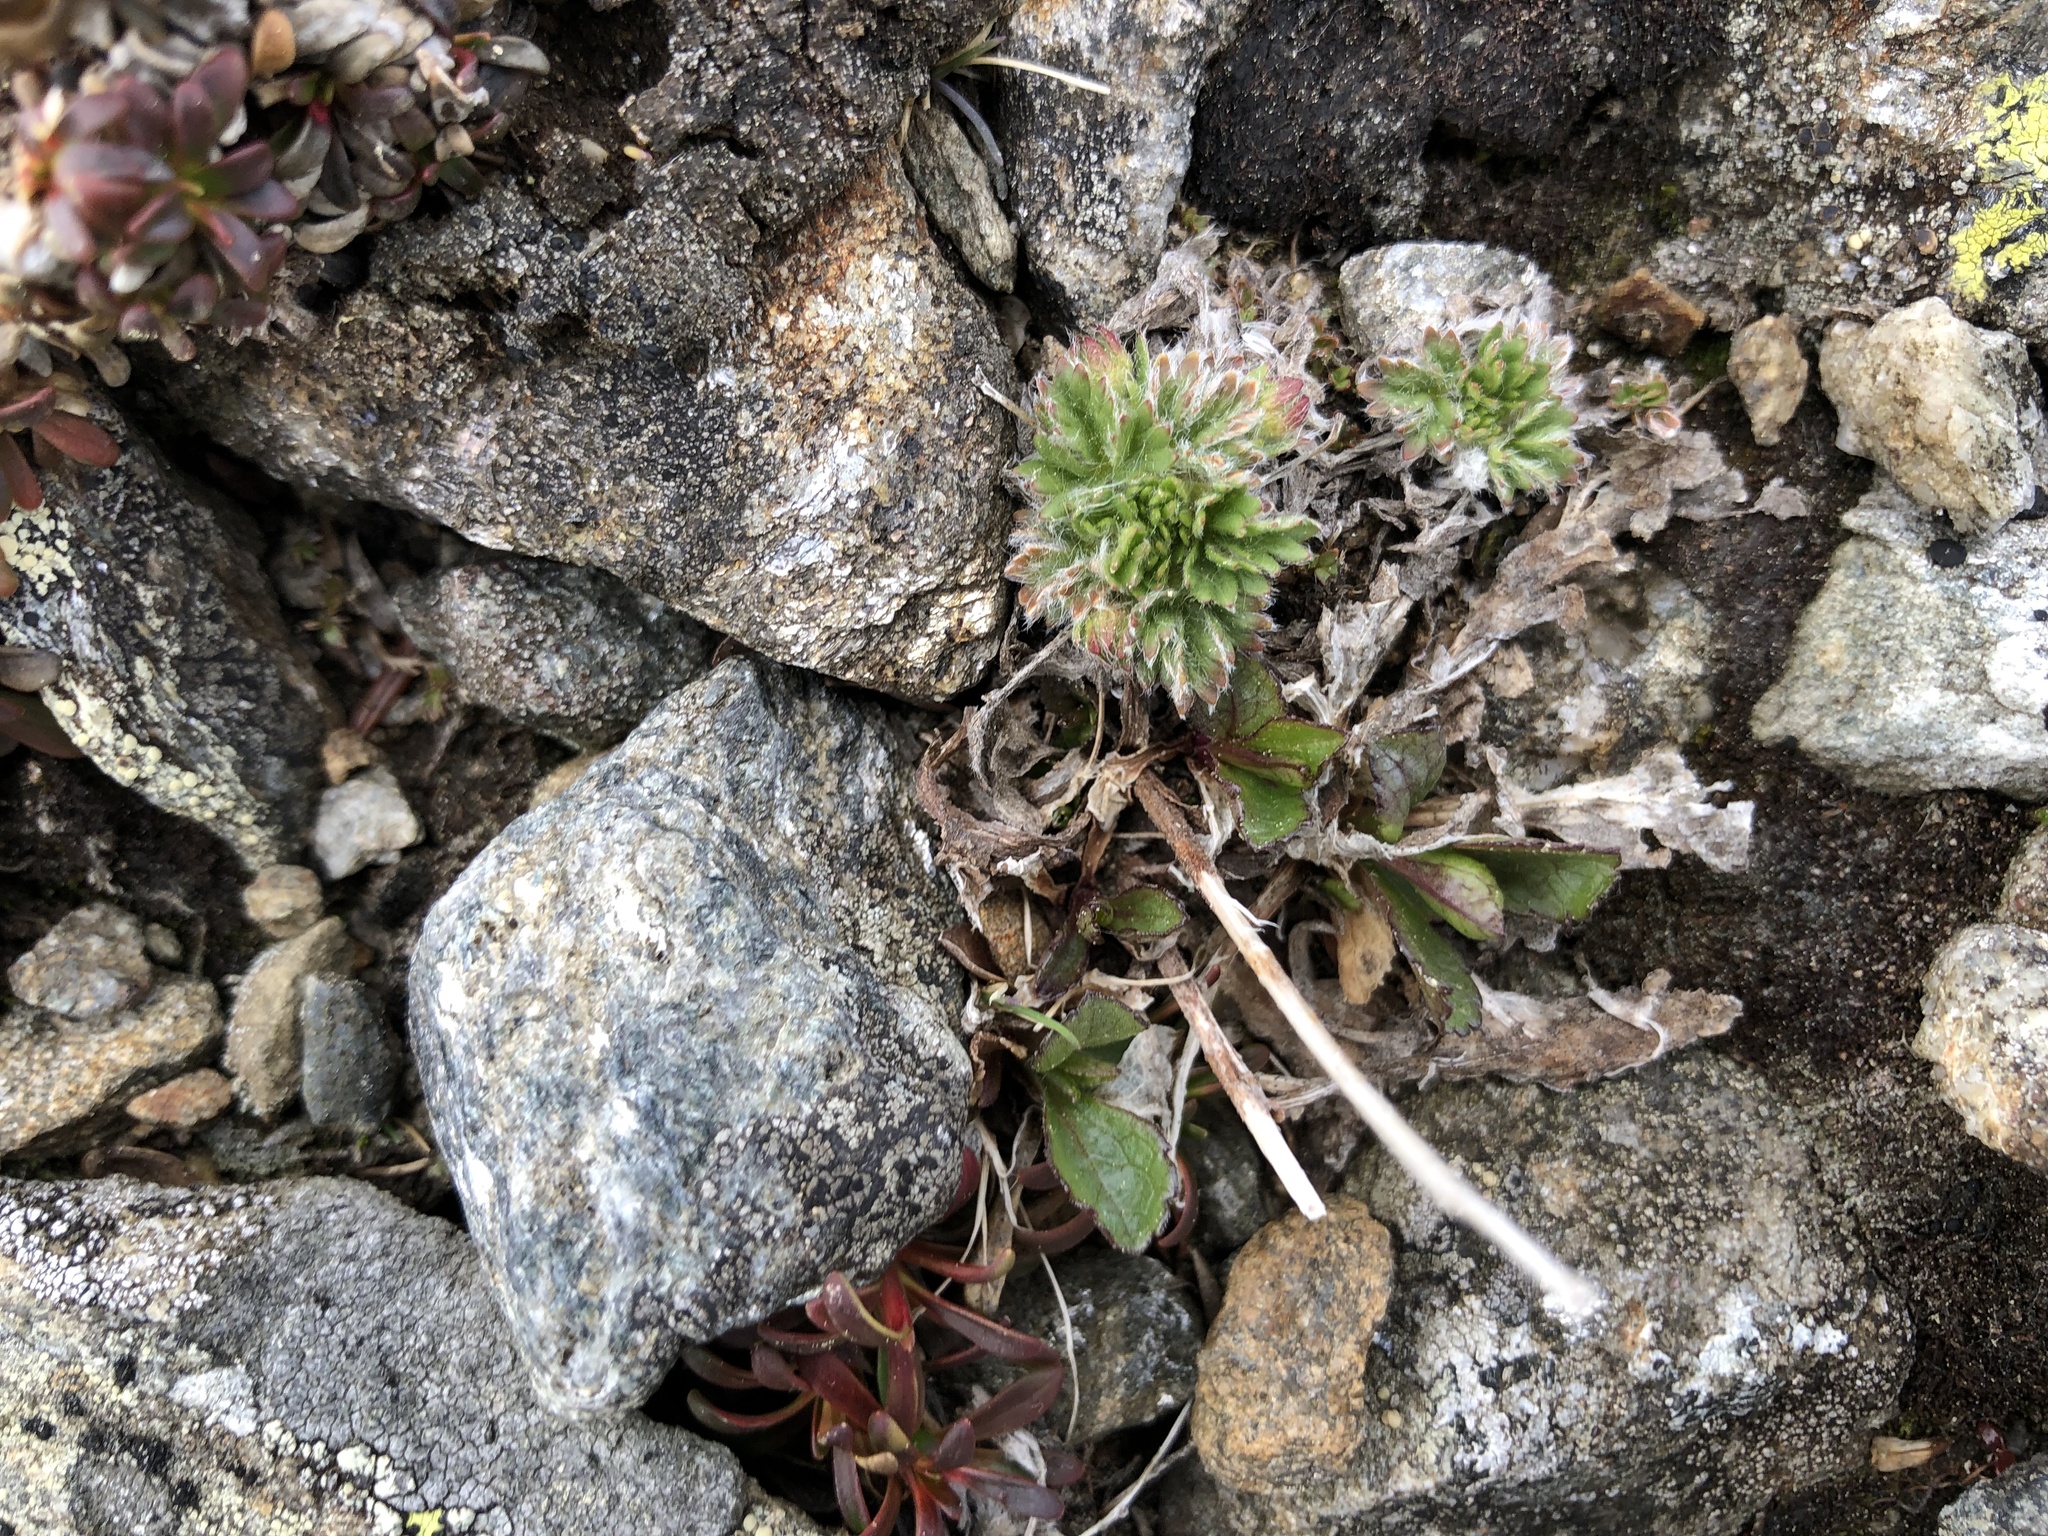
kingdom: Plantae
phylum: Tracheophyta
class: Magnoliopsida
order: Rosales
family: Rosaceae
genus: Potentilla
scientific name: Potentilla robbinsiana
